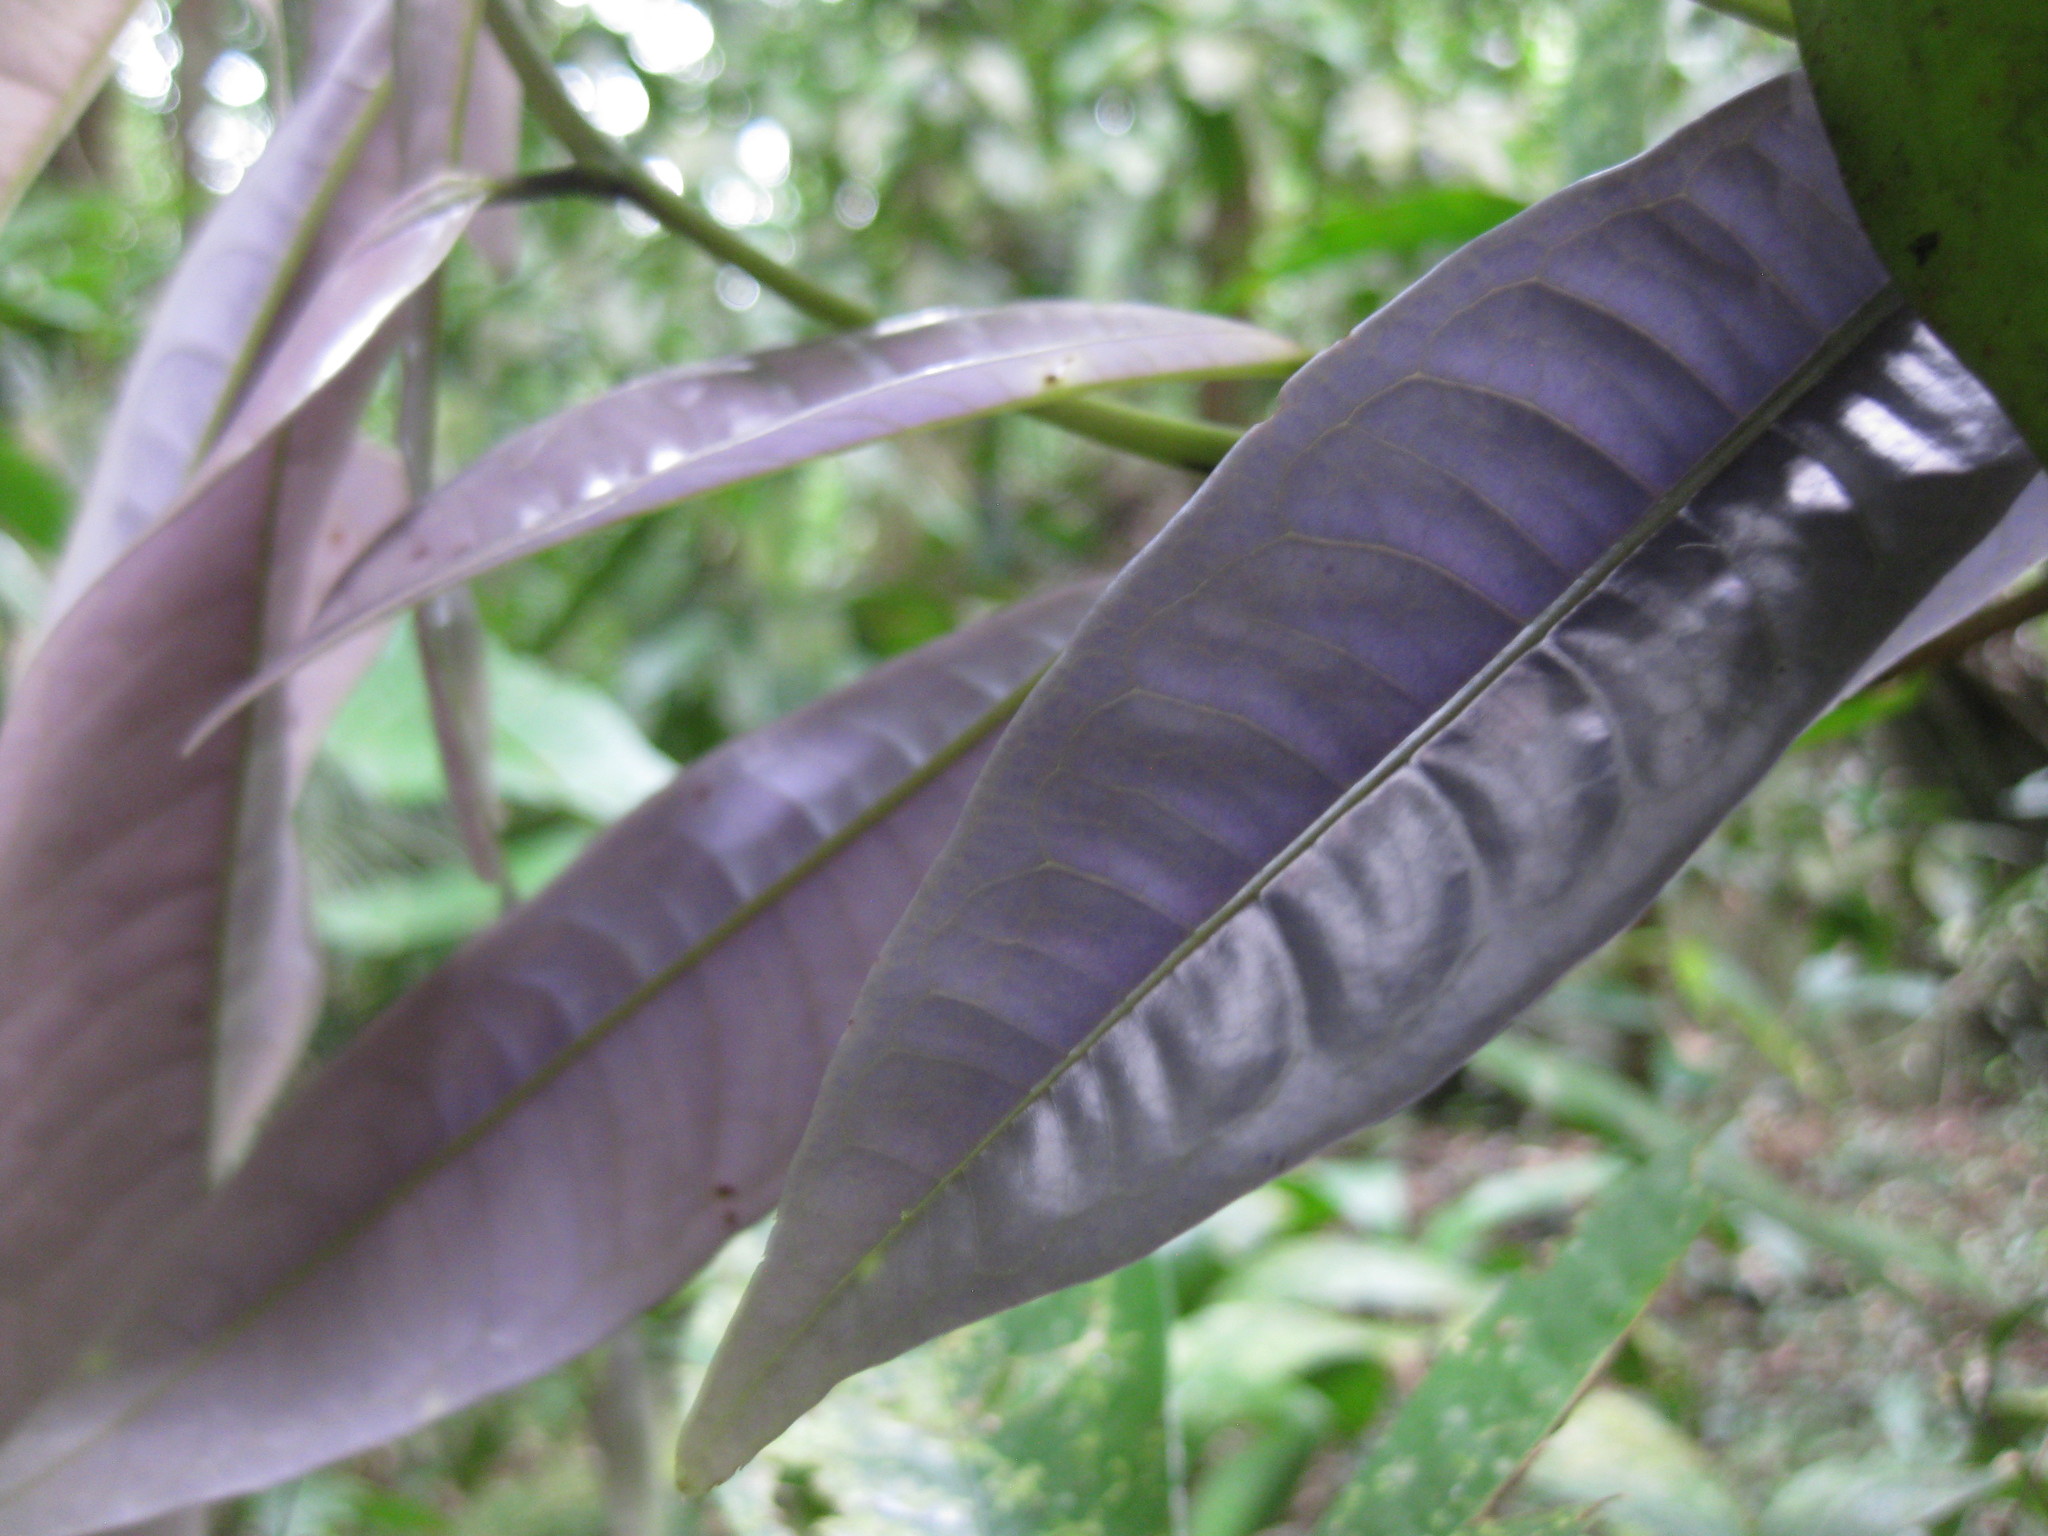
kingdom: Plantae
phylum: Tracheophyta
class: Magnoliopsida
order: Myrtales
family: Myrtaceae
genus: Lindsayomyrtus
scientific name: Lindsayomyrtus racemoides
